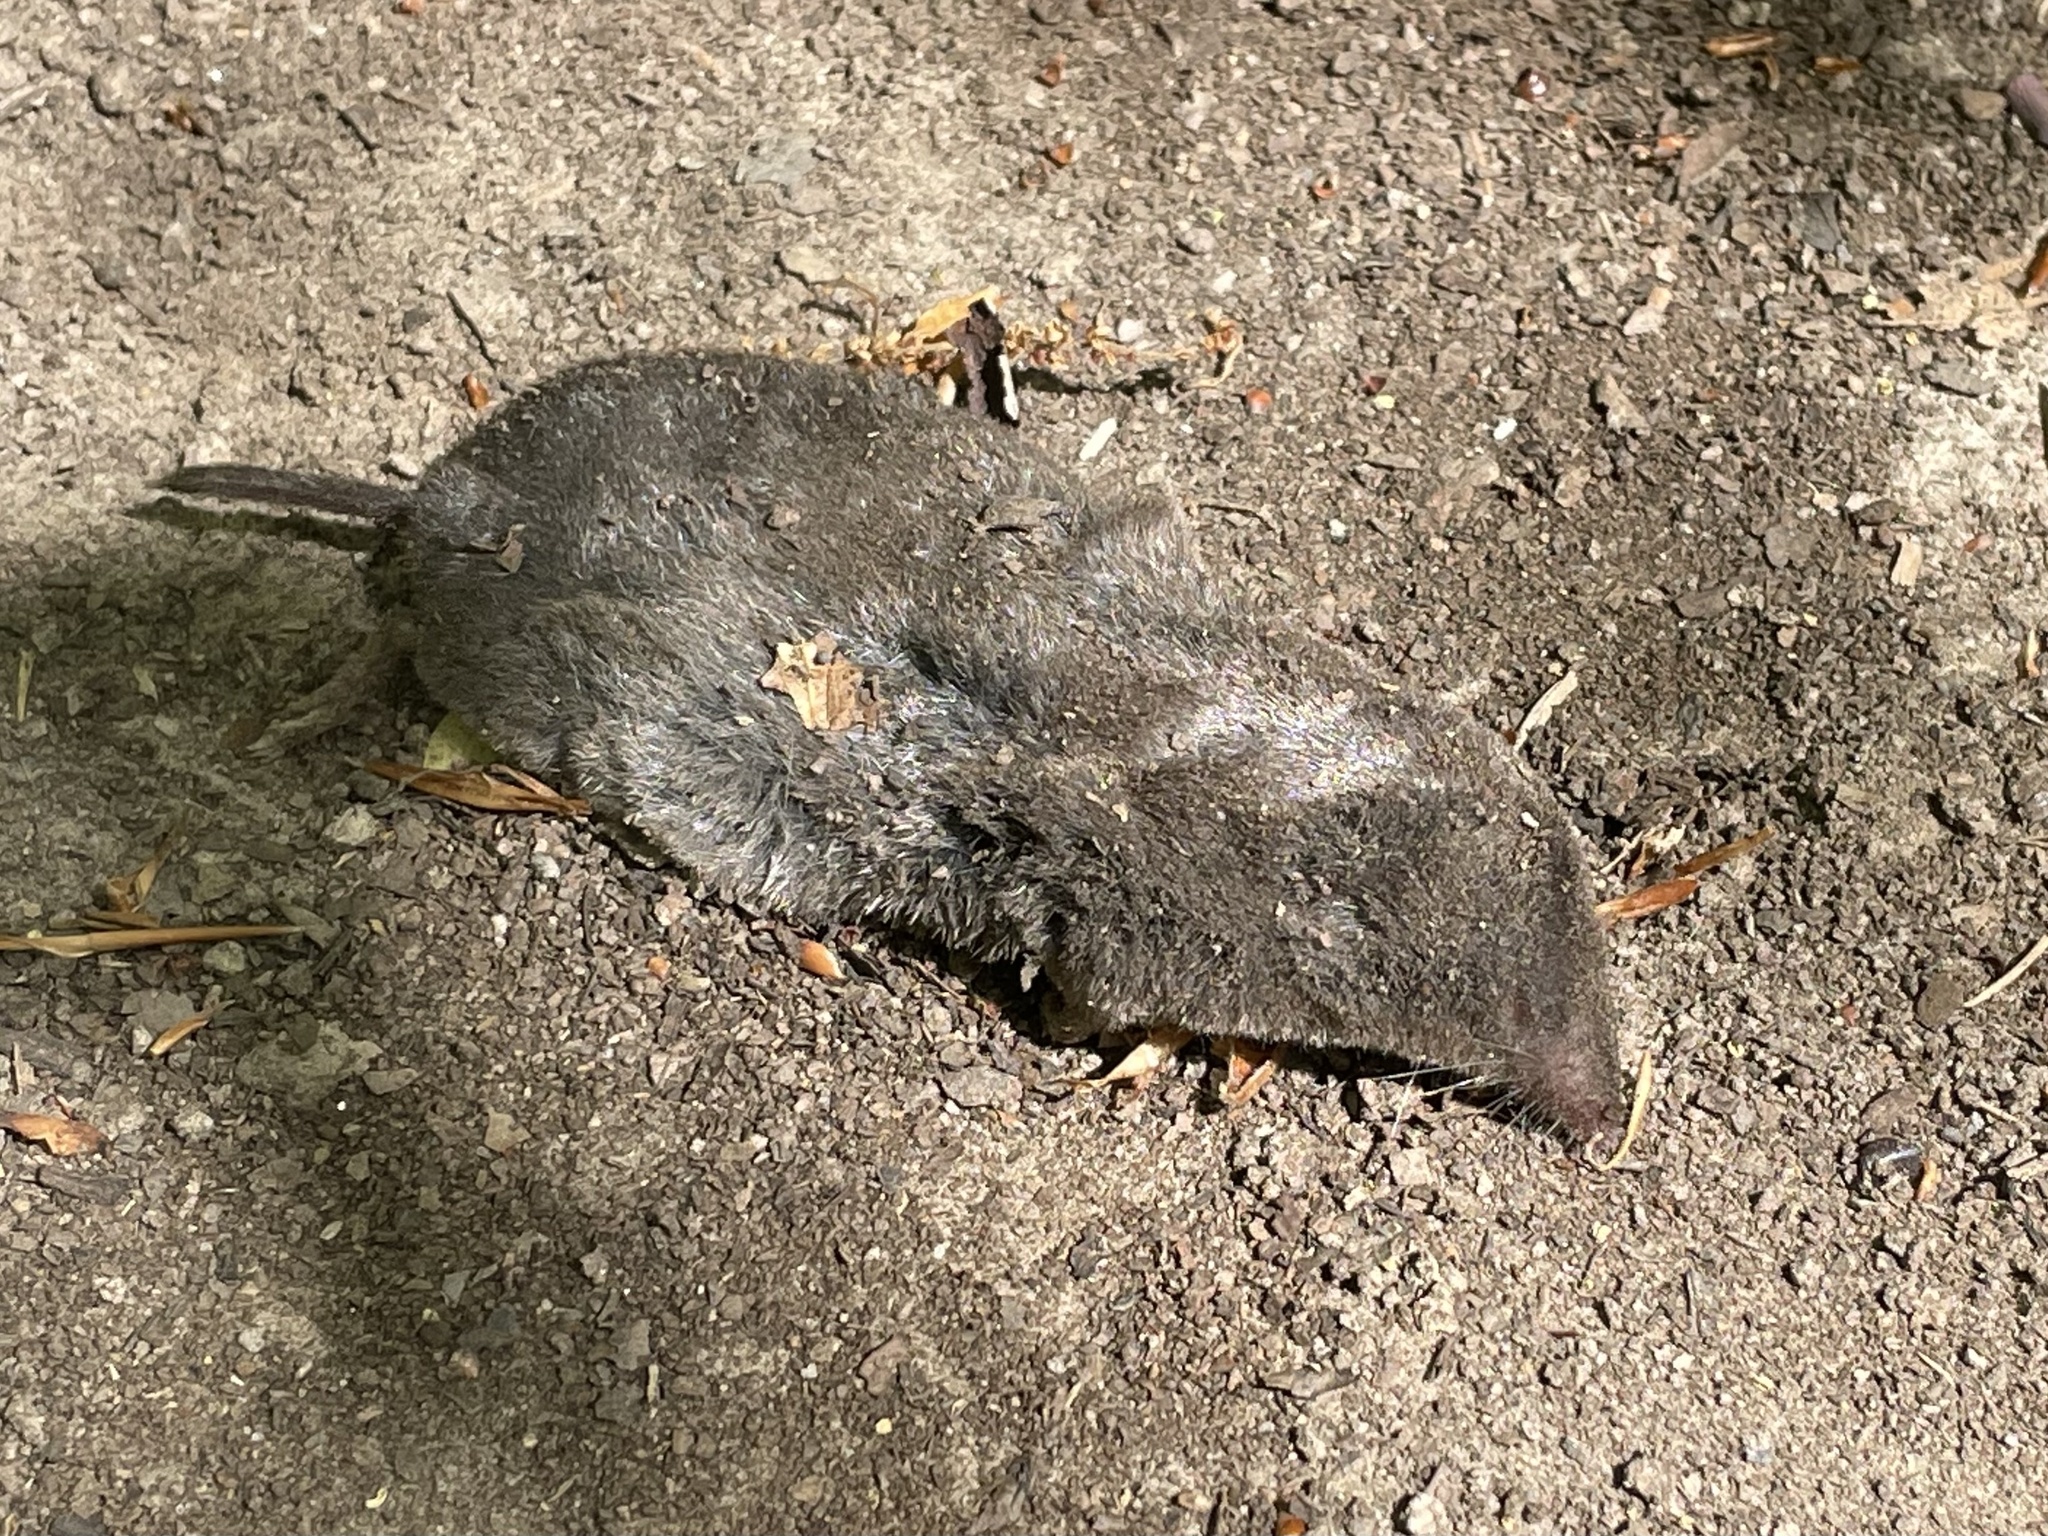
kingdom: Animalia
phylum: Chordata
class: Mammalia
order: Soricomorpha
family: Soricidae
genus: Blarina
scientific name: Blarina brevicauda
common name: Northern short-tailed shrew
